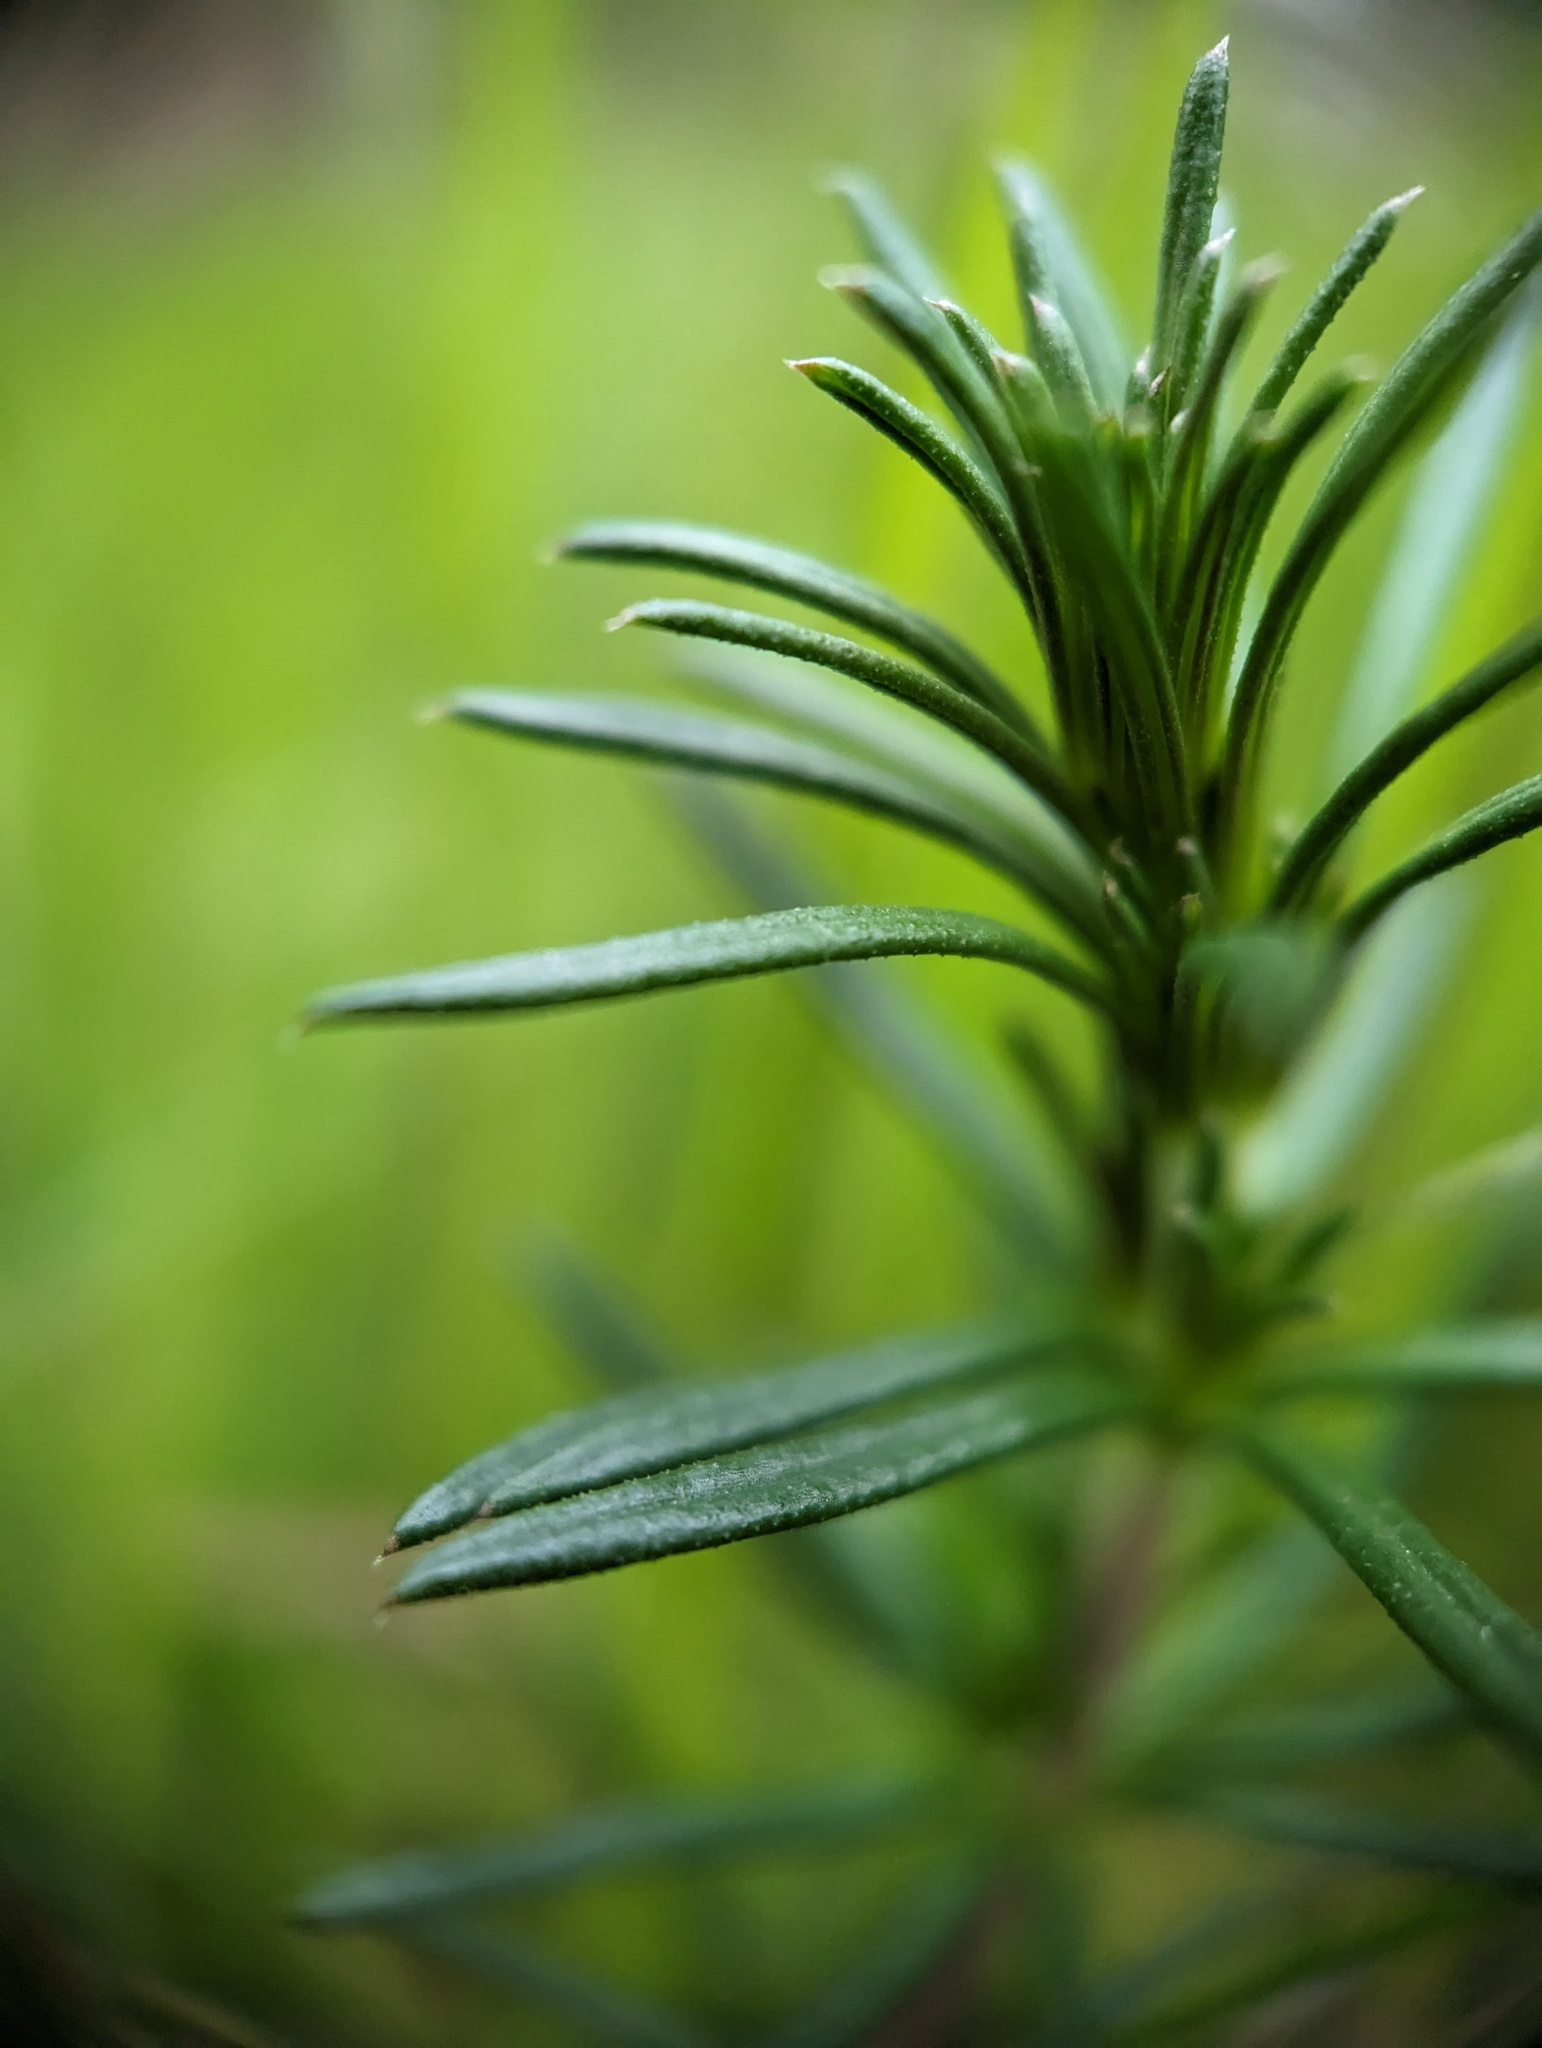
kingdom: Plantae
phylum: Tracheophyta
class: Magnoliopsida
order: Gentianales
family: Rubiaceae
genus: Galium
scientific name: Galium verum
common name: Lady's bedstraw
